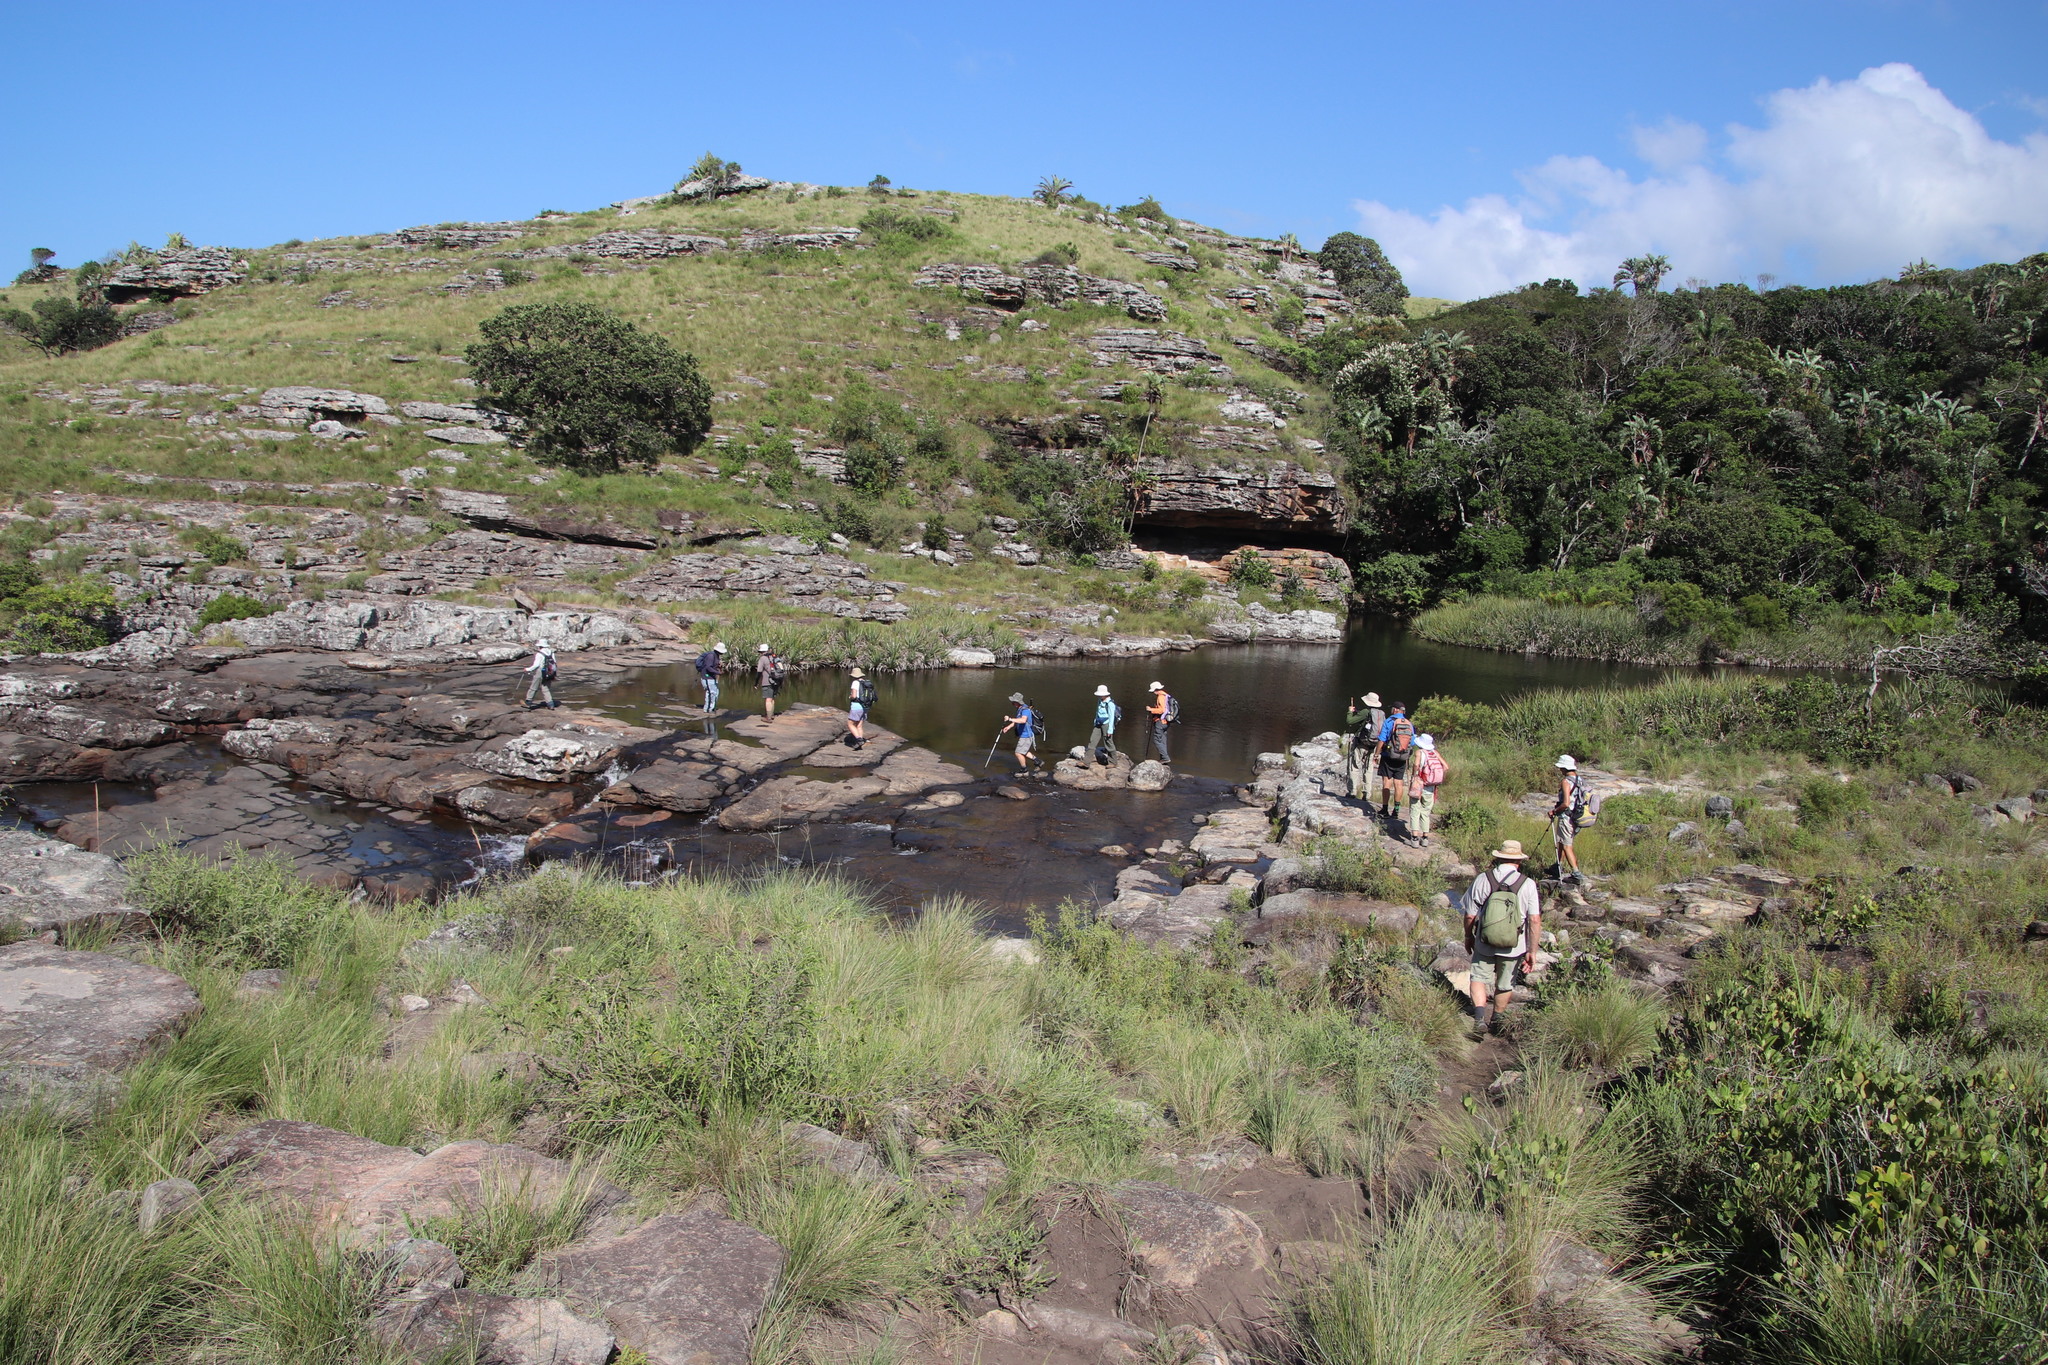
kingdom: Plantae
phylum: Tracheophyta
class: Liliopsida
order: Poales
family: Thurniaceae
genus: Prionium
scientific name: Prionium serratum
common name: Palmiet
